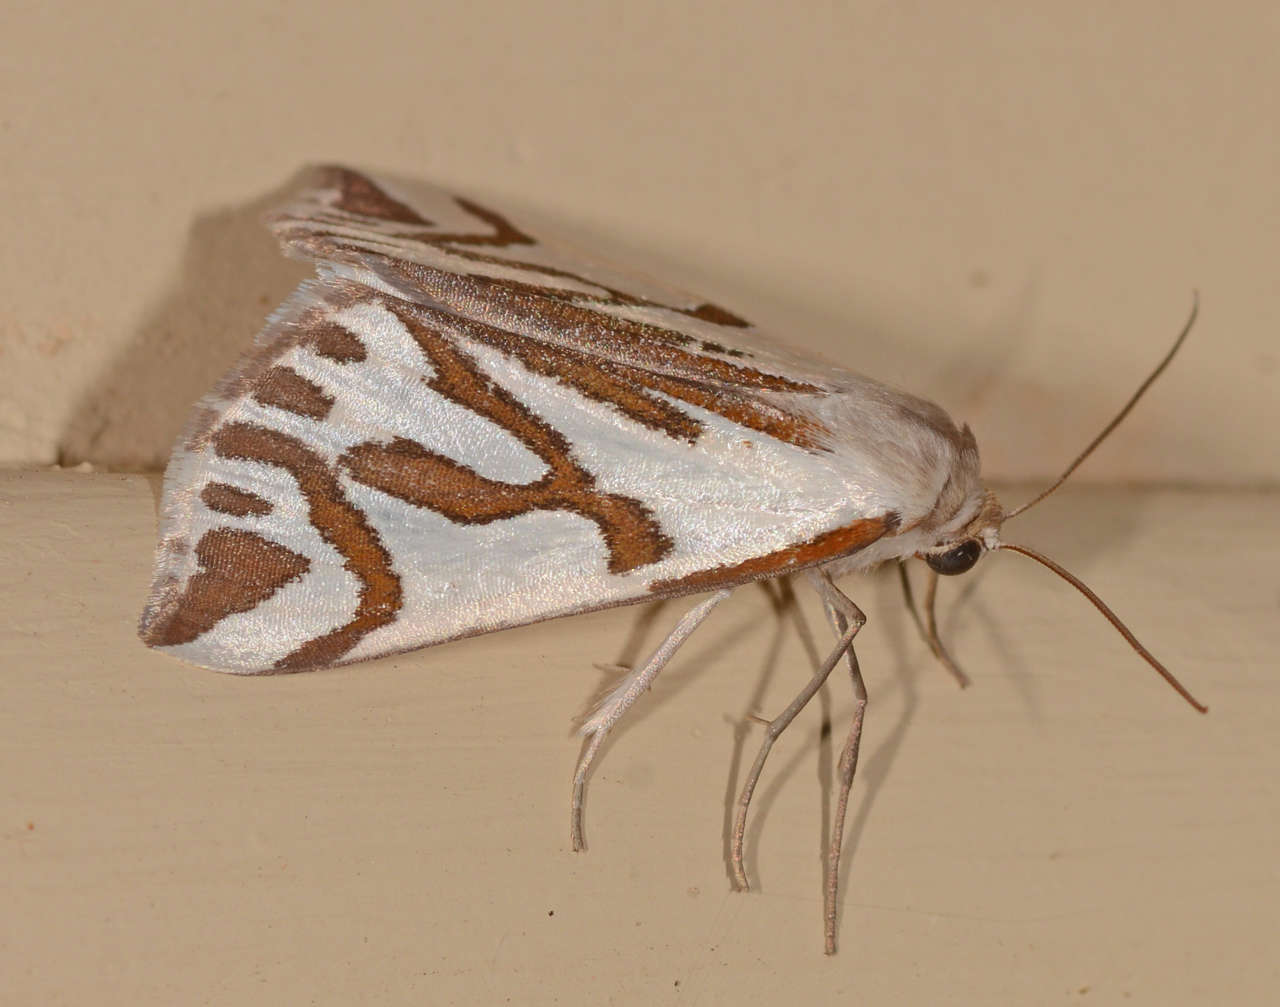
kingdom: Animalia
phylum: Arthropoda
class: Insecta
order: Lepidoptera
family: Geometridae
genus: Thalaina
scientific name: Thalaina inscripta
